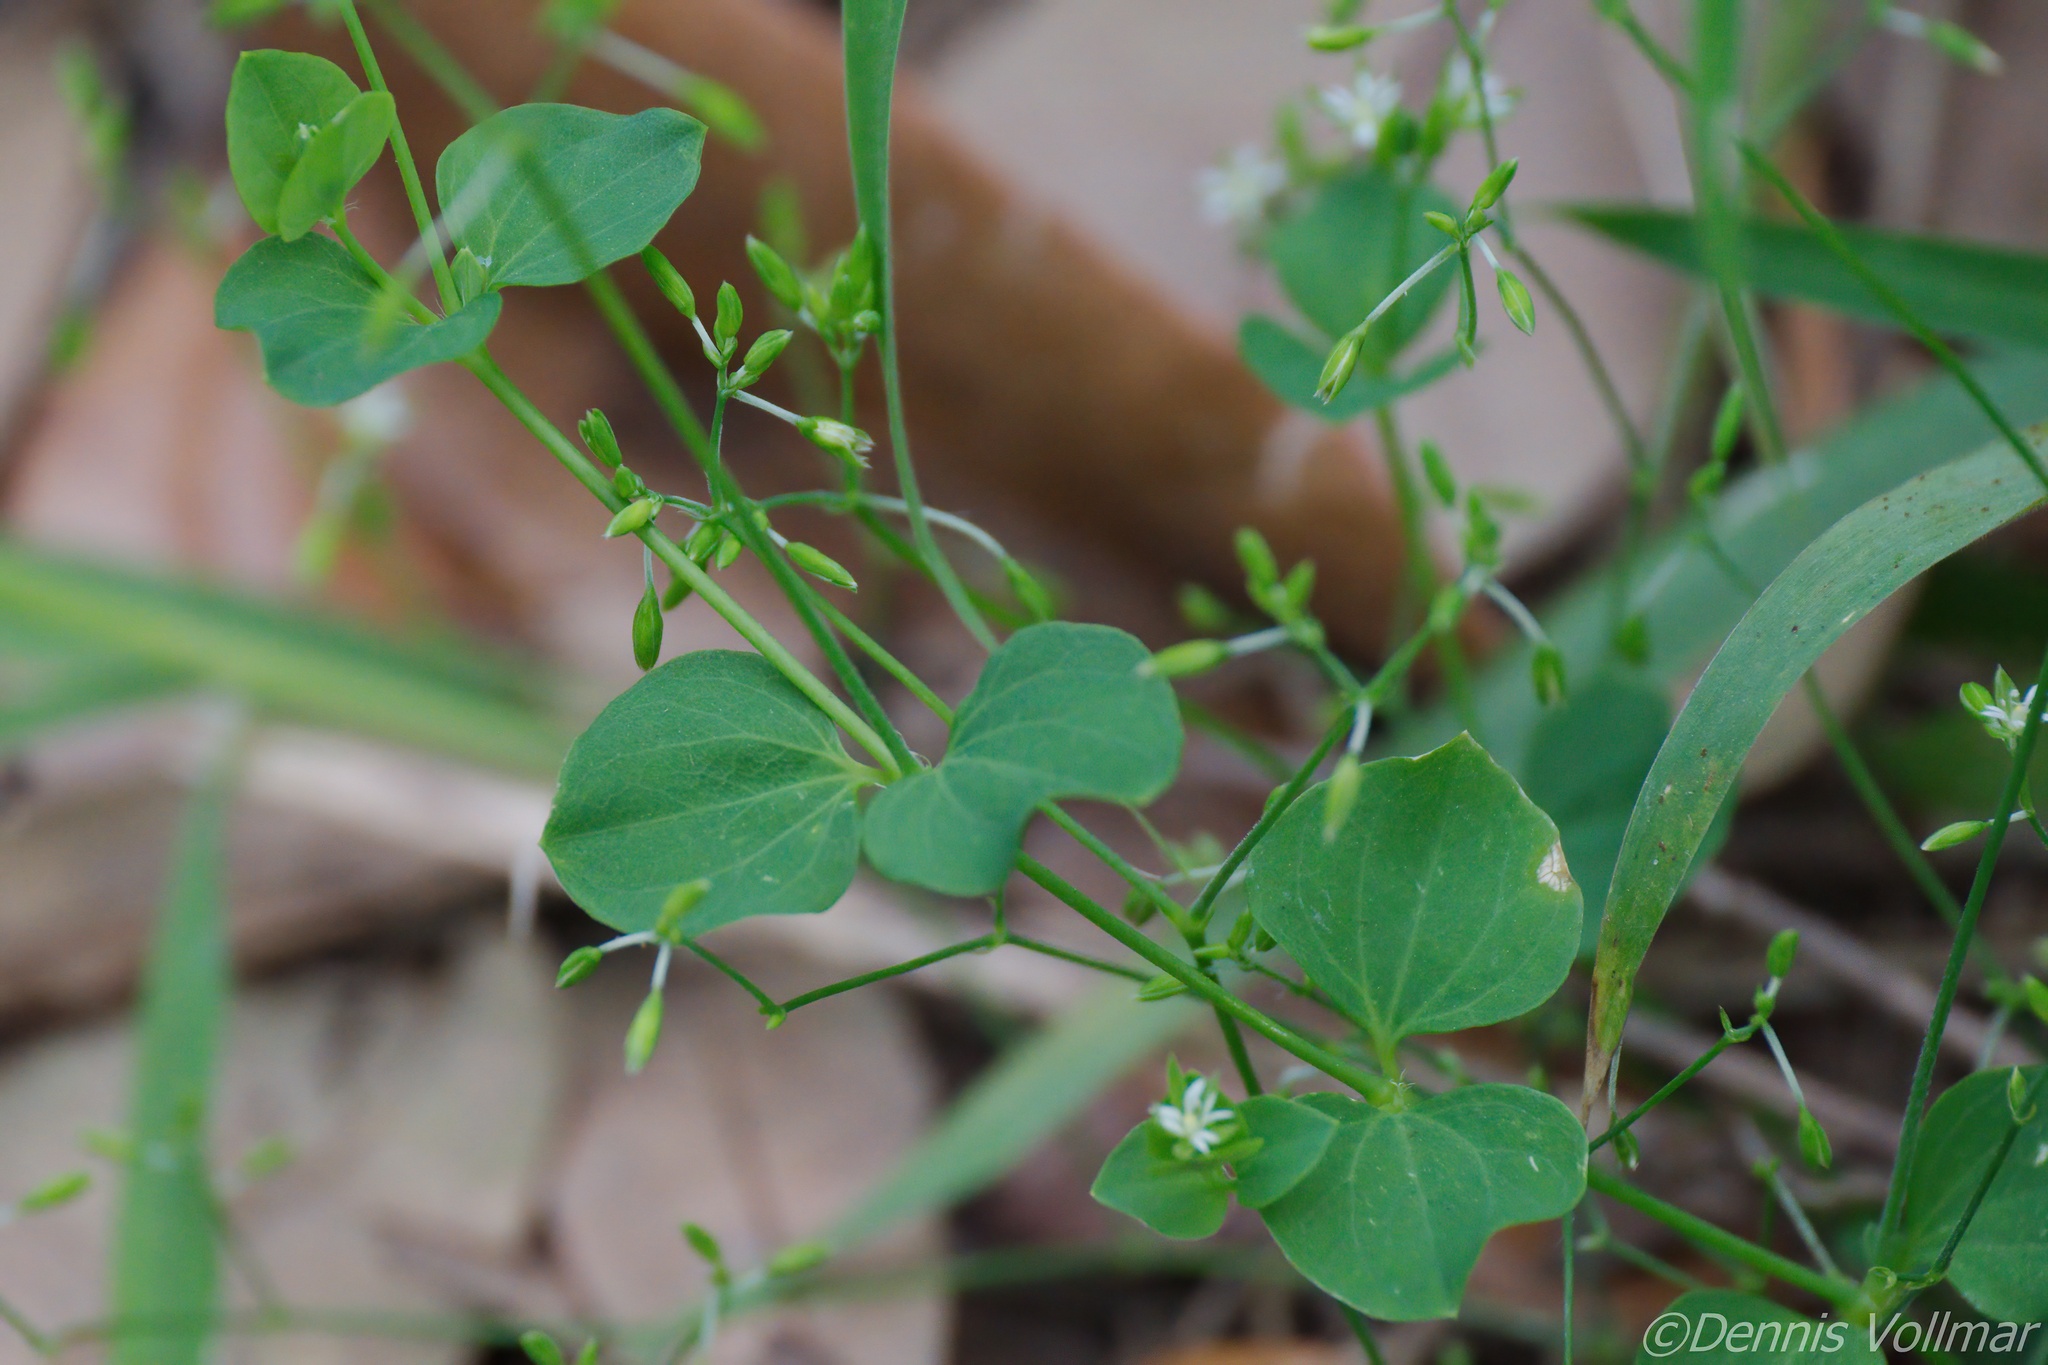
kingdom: Plantae
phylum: Tracheophyta
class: Magnoliopsida
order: Caryophyllales
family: Caryophyllaceae
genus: Drymaria
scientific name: Drymaria cordata
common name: Whitesnow
